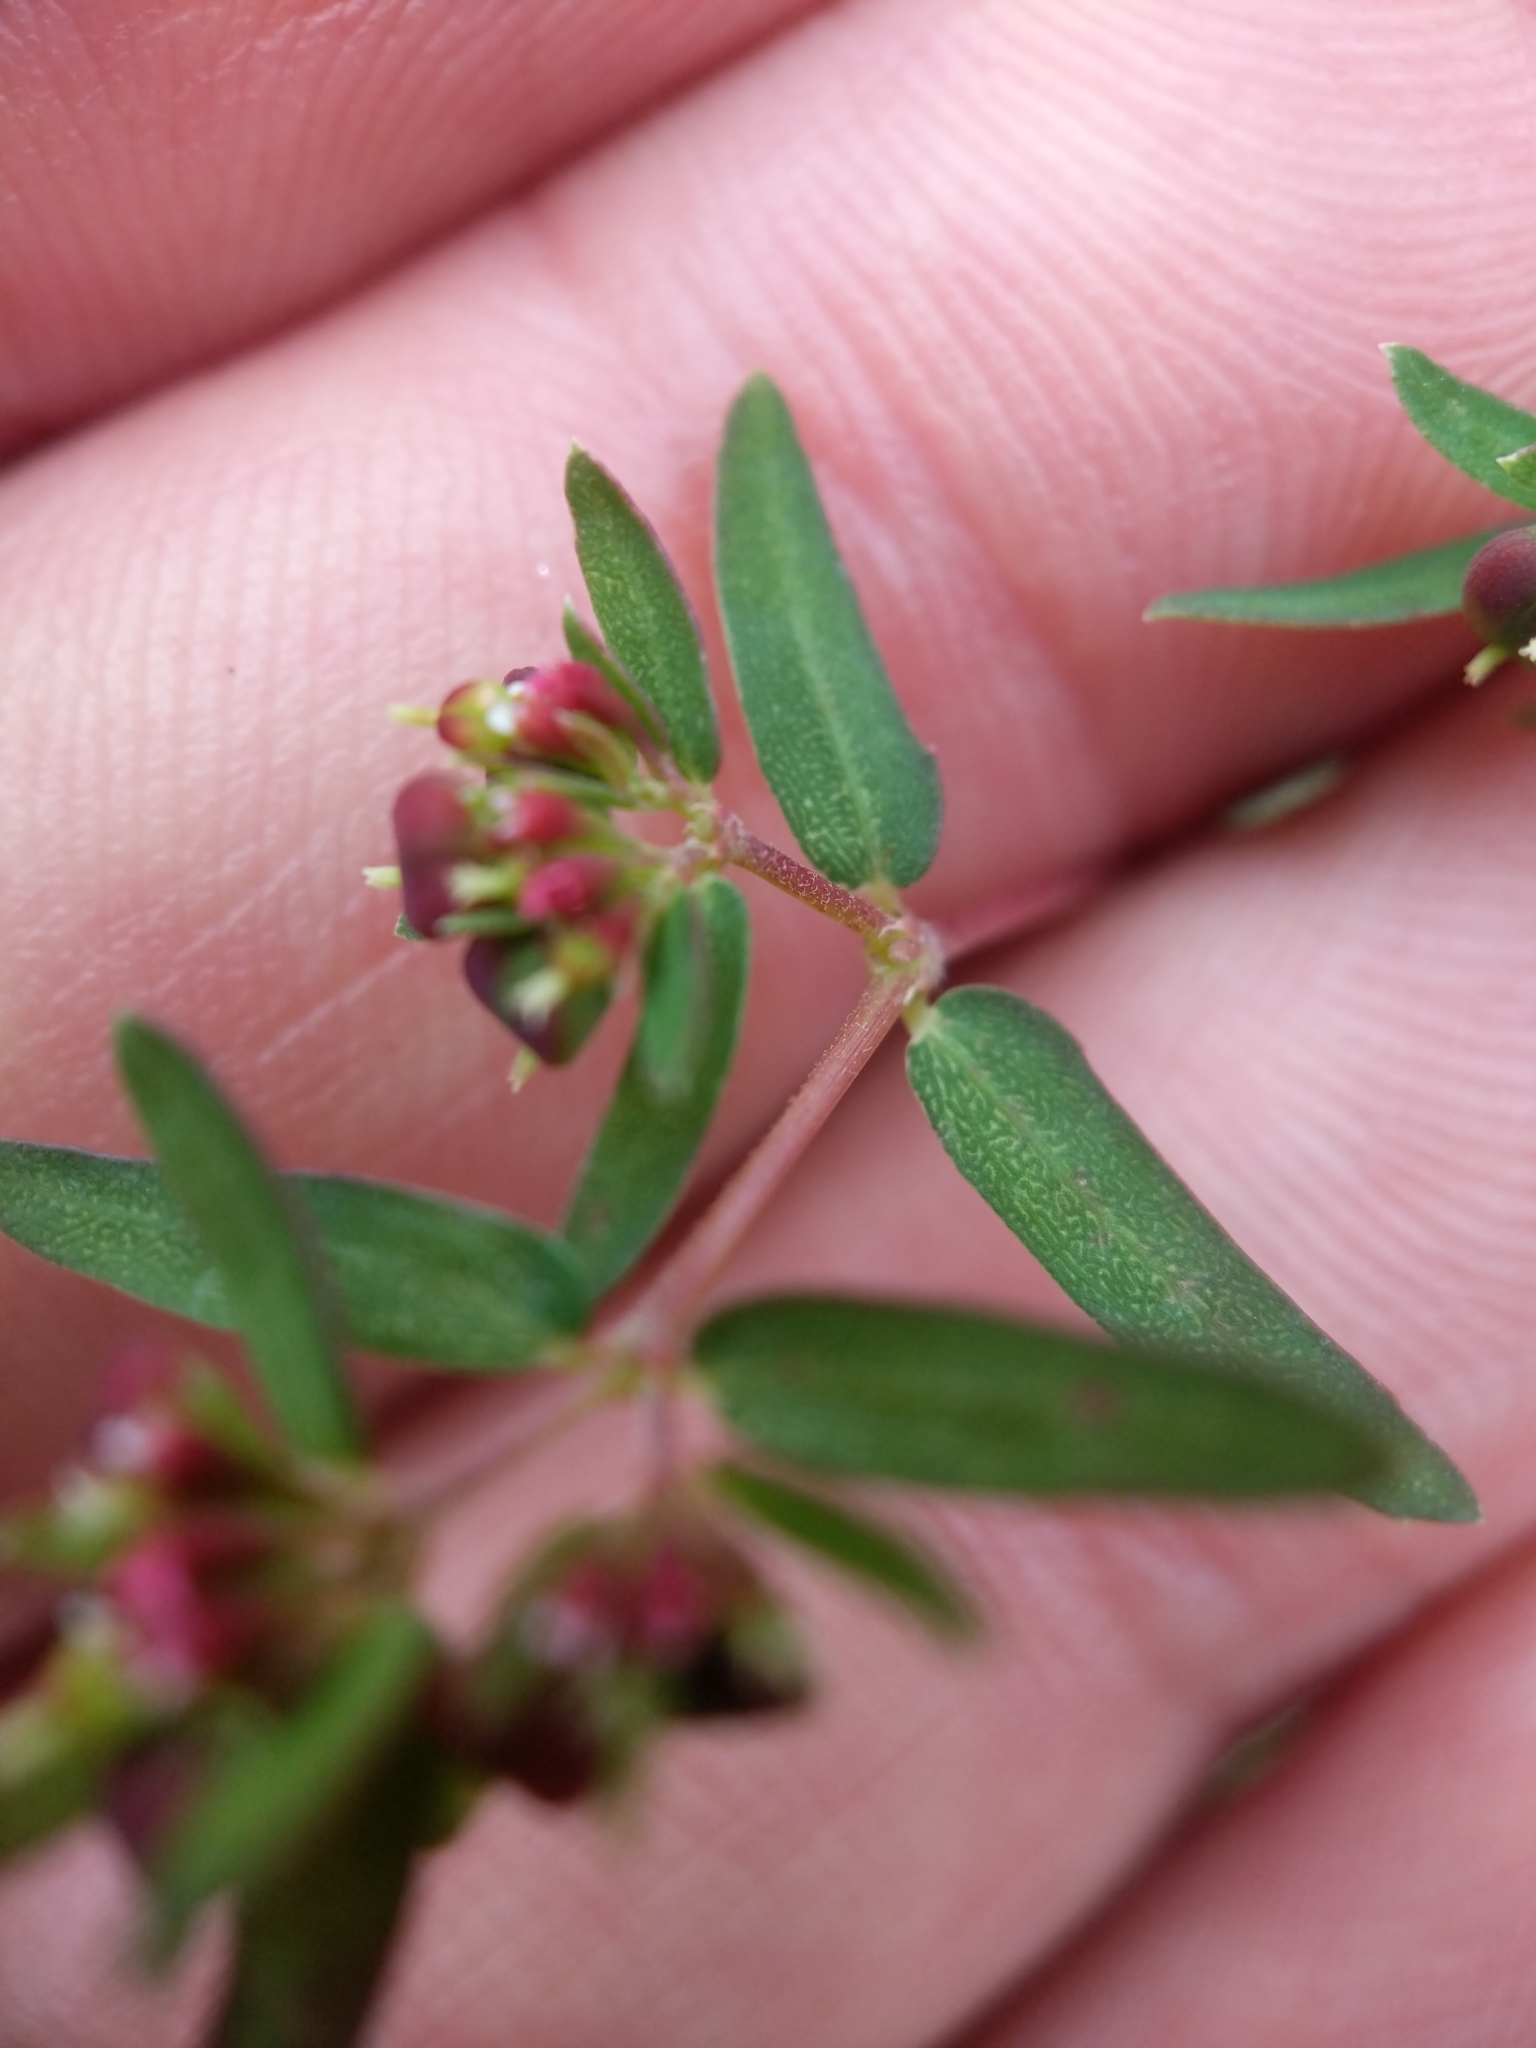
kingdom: Plantae
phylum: Tracheophyta
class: Magnoliopsida
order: Malpighiales
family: Euphorbiaceae
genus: Euphorbia
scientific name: Euphorbia nutans
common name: Eyebane
